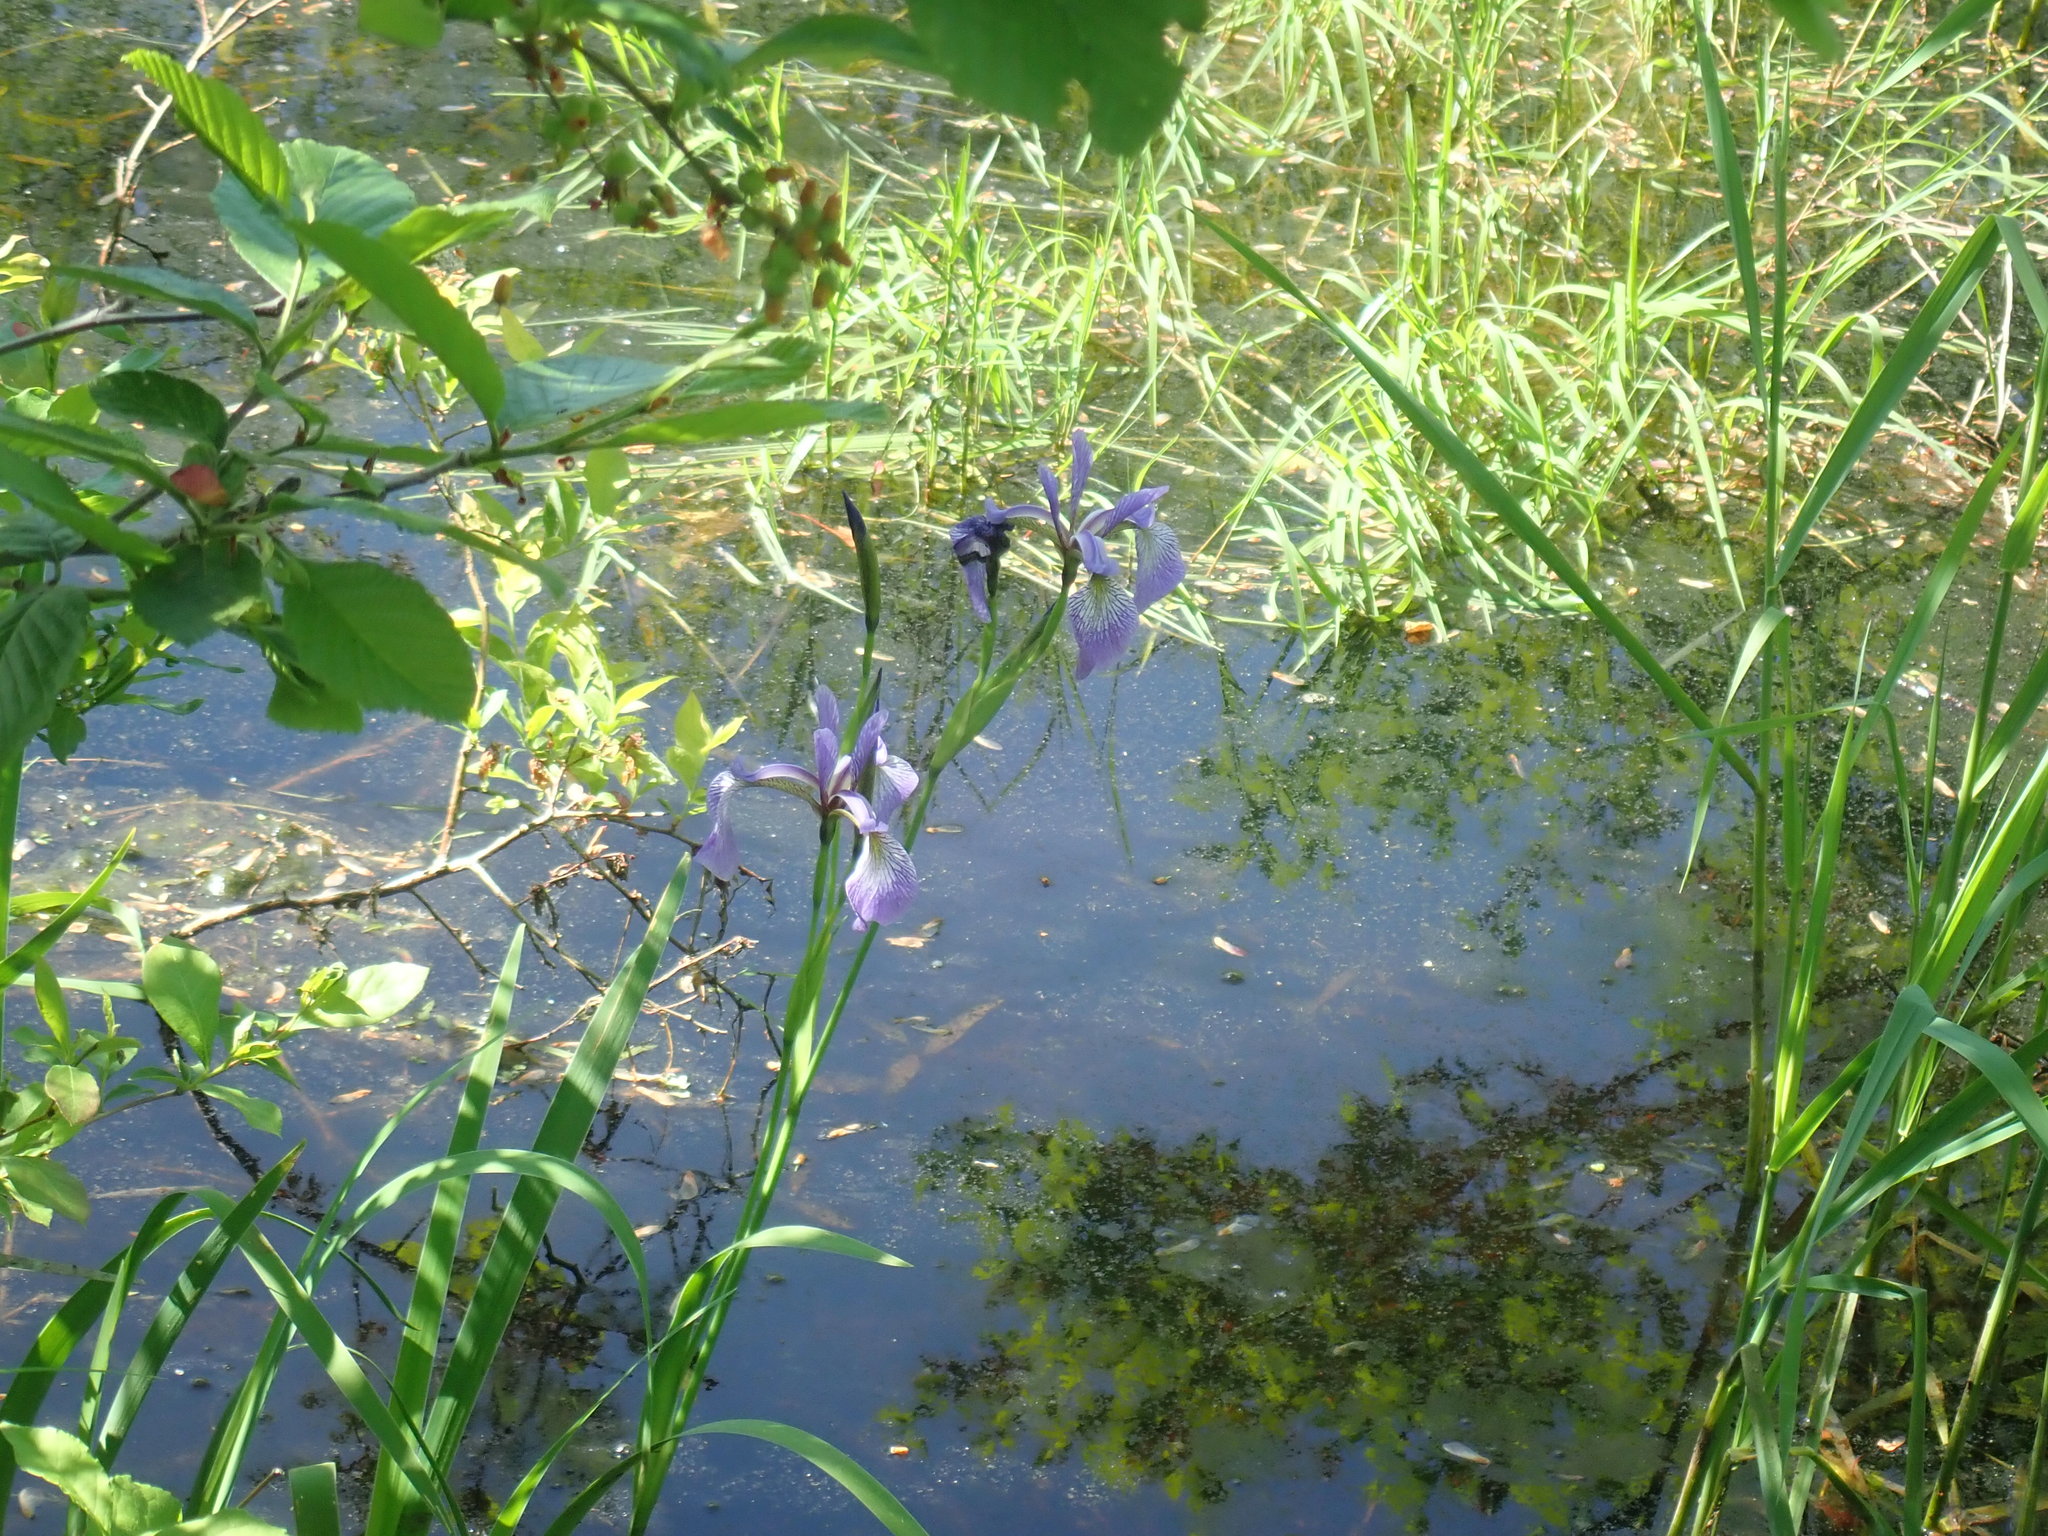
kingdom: Plantae
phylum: Tracheophyta
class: Liliopsida
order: Asparagales
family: Iridaceae
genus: Iris
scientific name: Iris versicolor
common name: Purple iris
